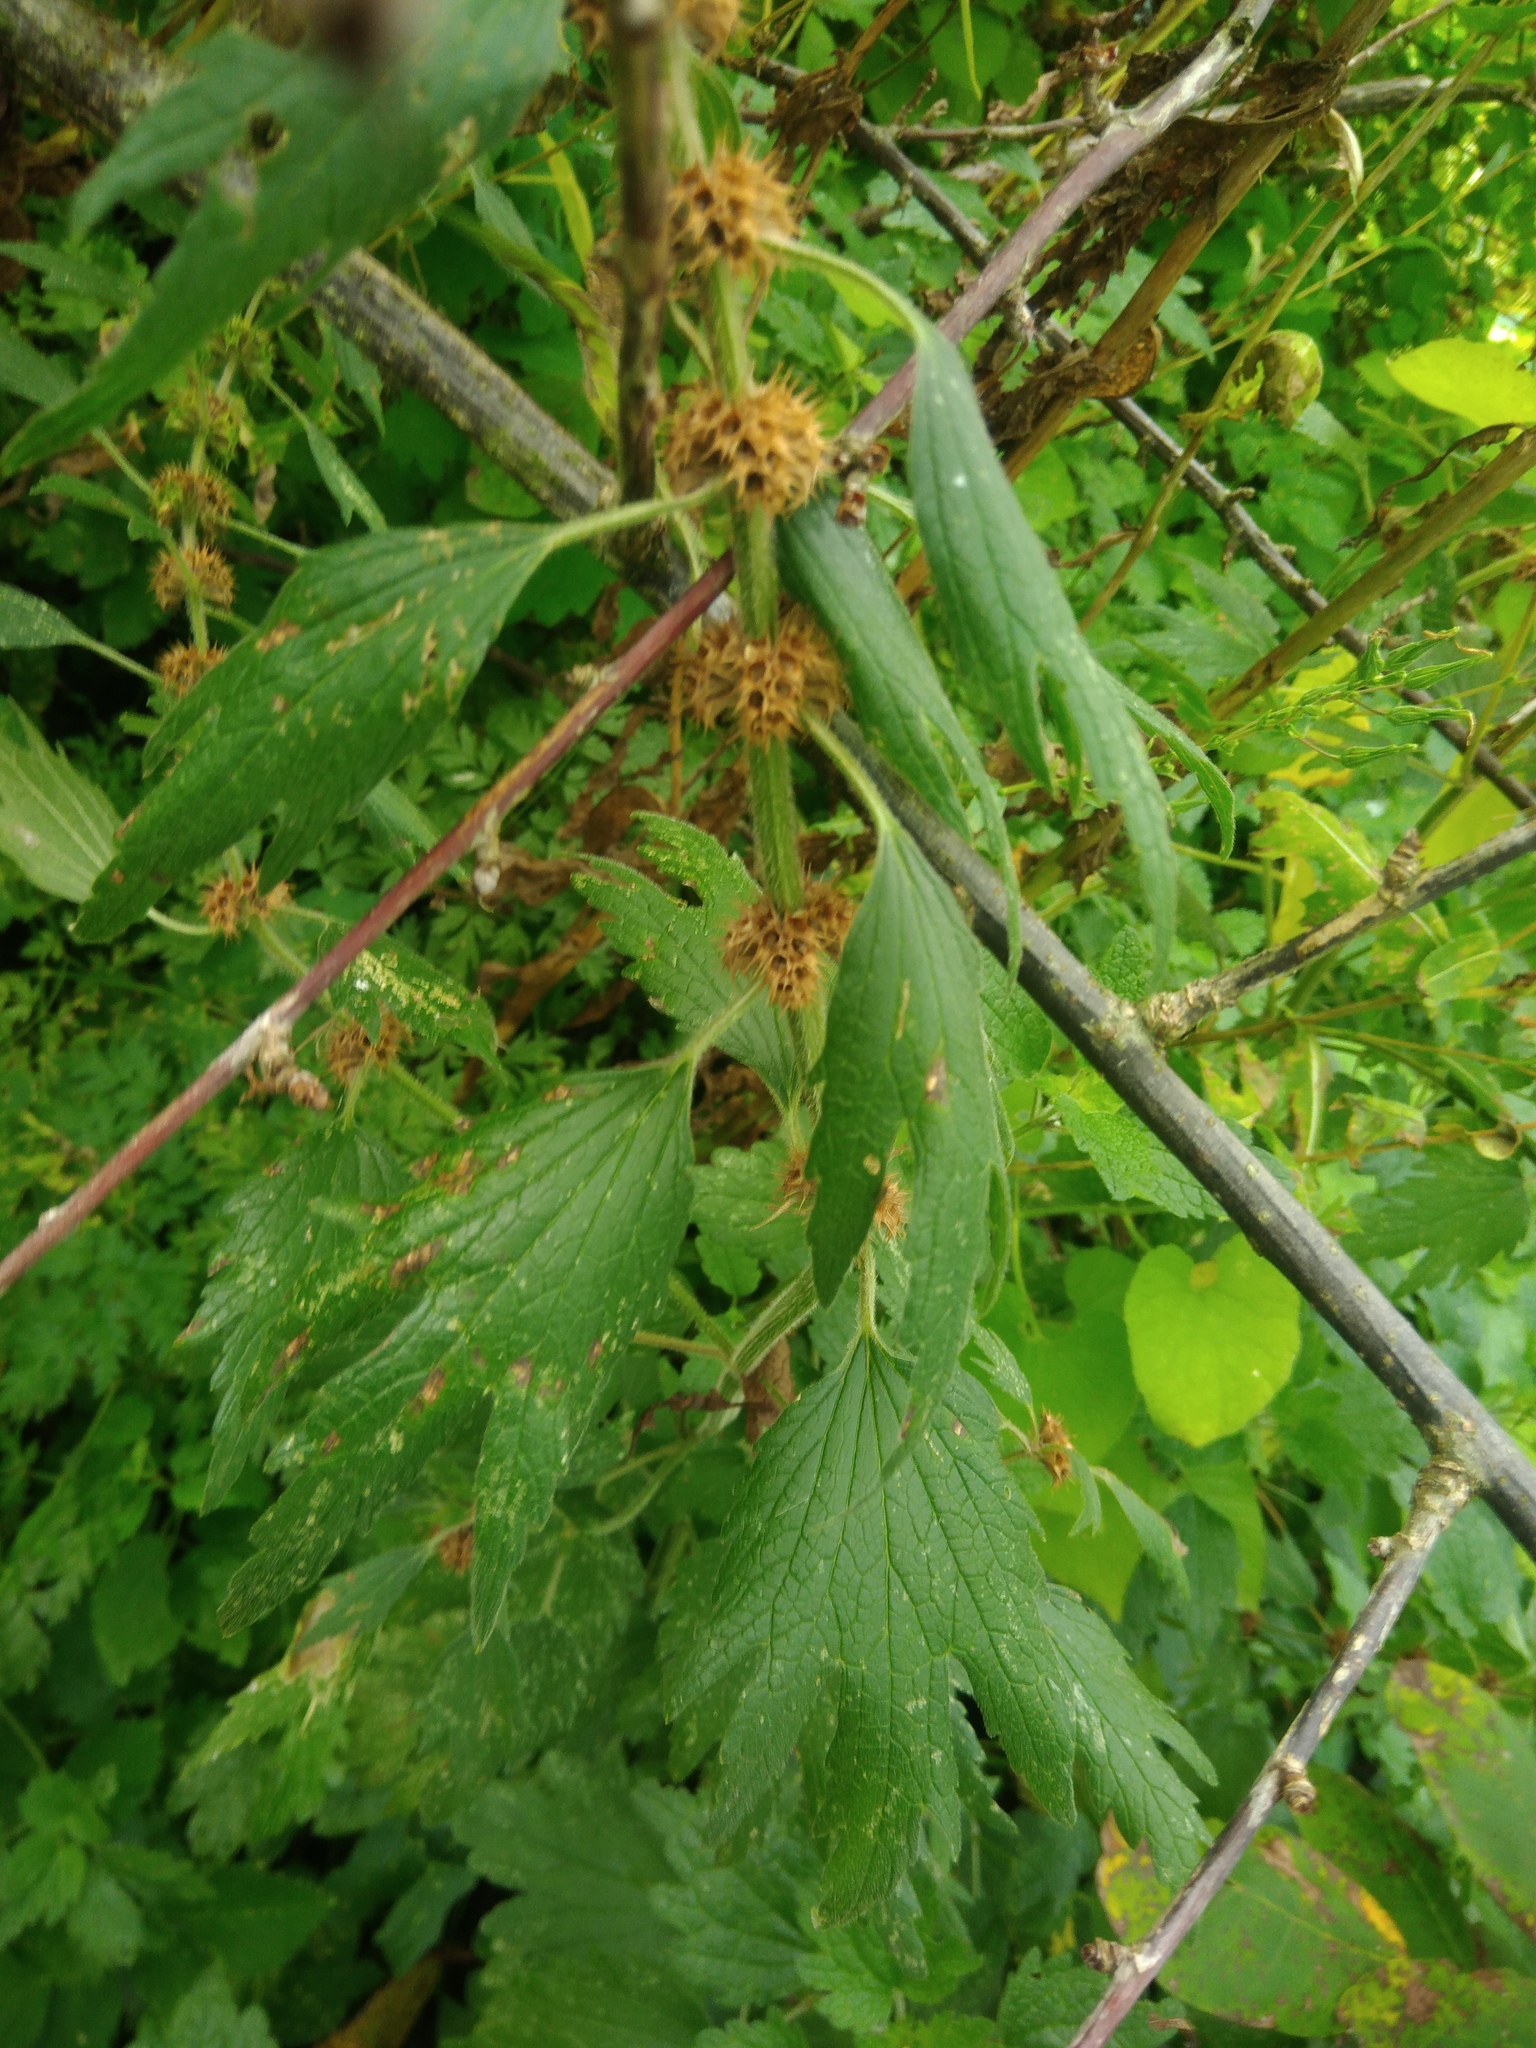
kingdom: Plantae
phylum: Tracheophyta
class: Magnoliopsida
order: Lamiales
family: Lamiaceae
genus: Leonurus
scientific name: Leonurus quinquelobatus
